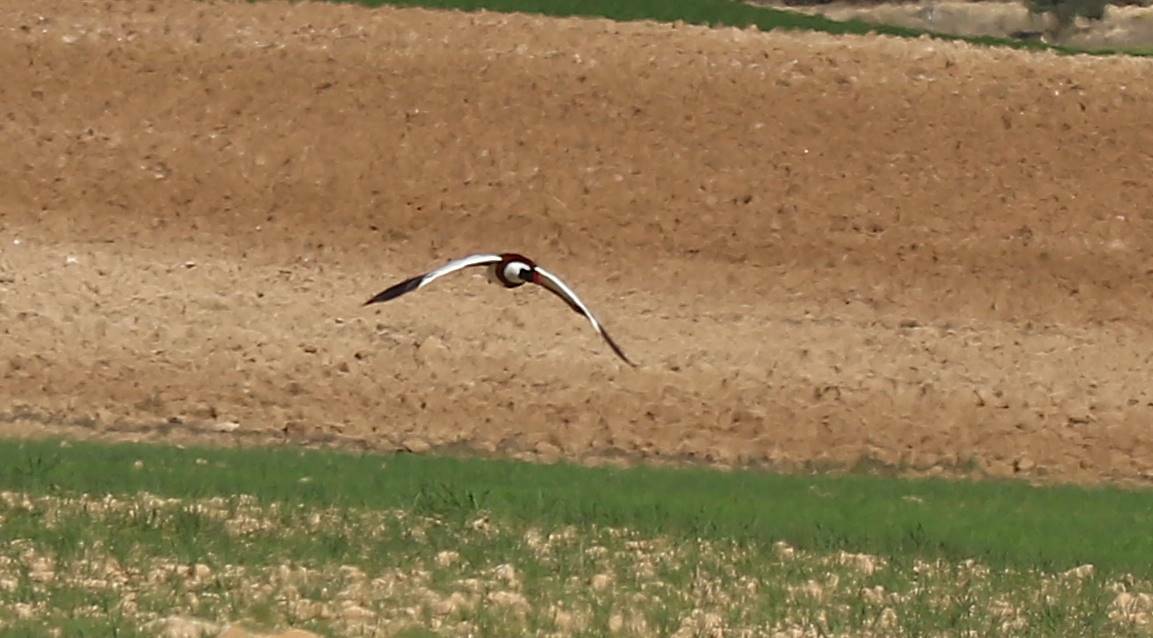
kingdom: Animalia
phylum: Chordata
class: Aves
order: Anseriformes
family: Anatidae
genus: Tadorna
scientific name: Tadorna tadorna
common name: Common shelduck
